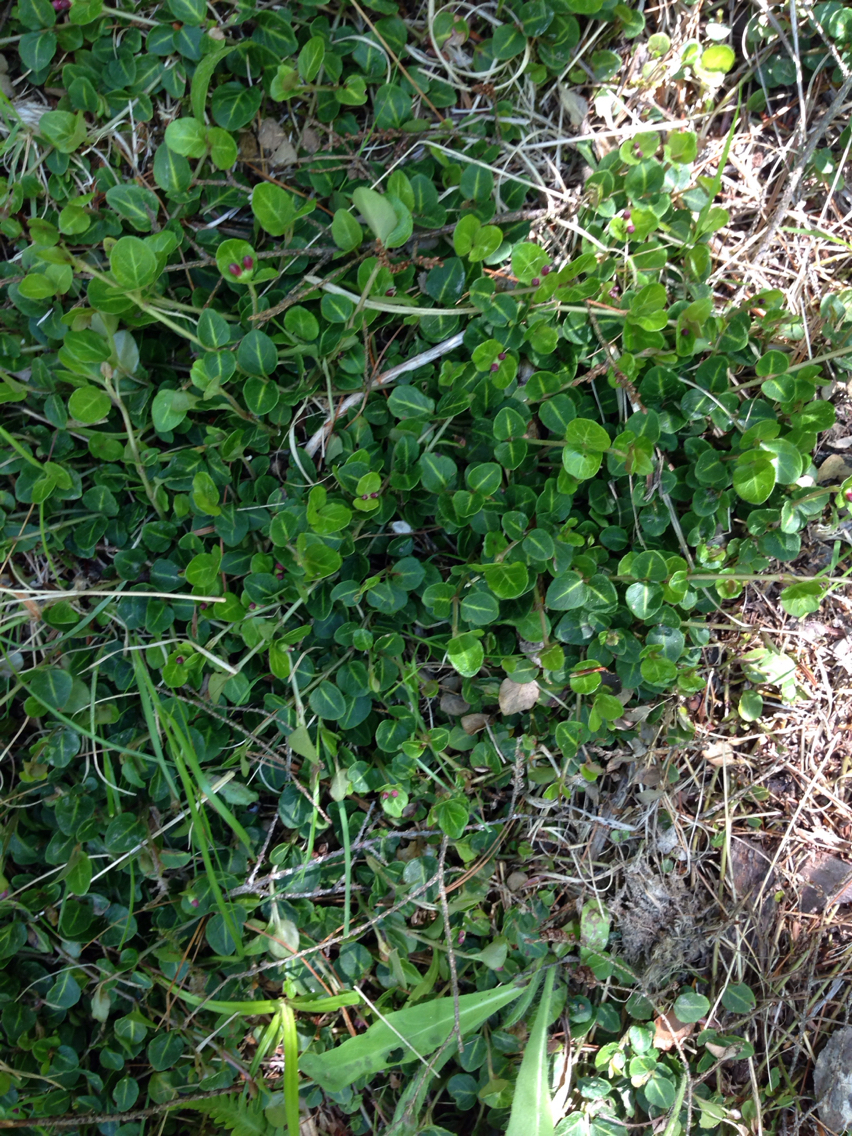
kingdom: Plantae
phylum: Tracheophyta
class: Magnoliopsida
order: Gentianales
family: Rubiaceae
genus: Mitchella
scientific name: Mitchella repens
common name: Partridge-berry
